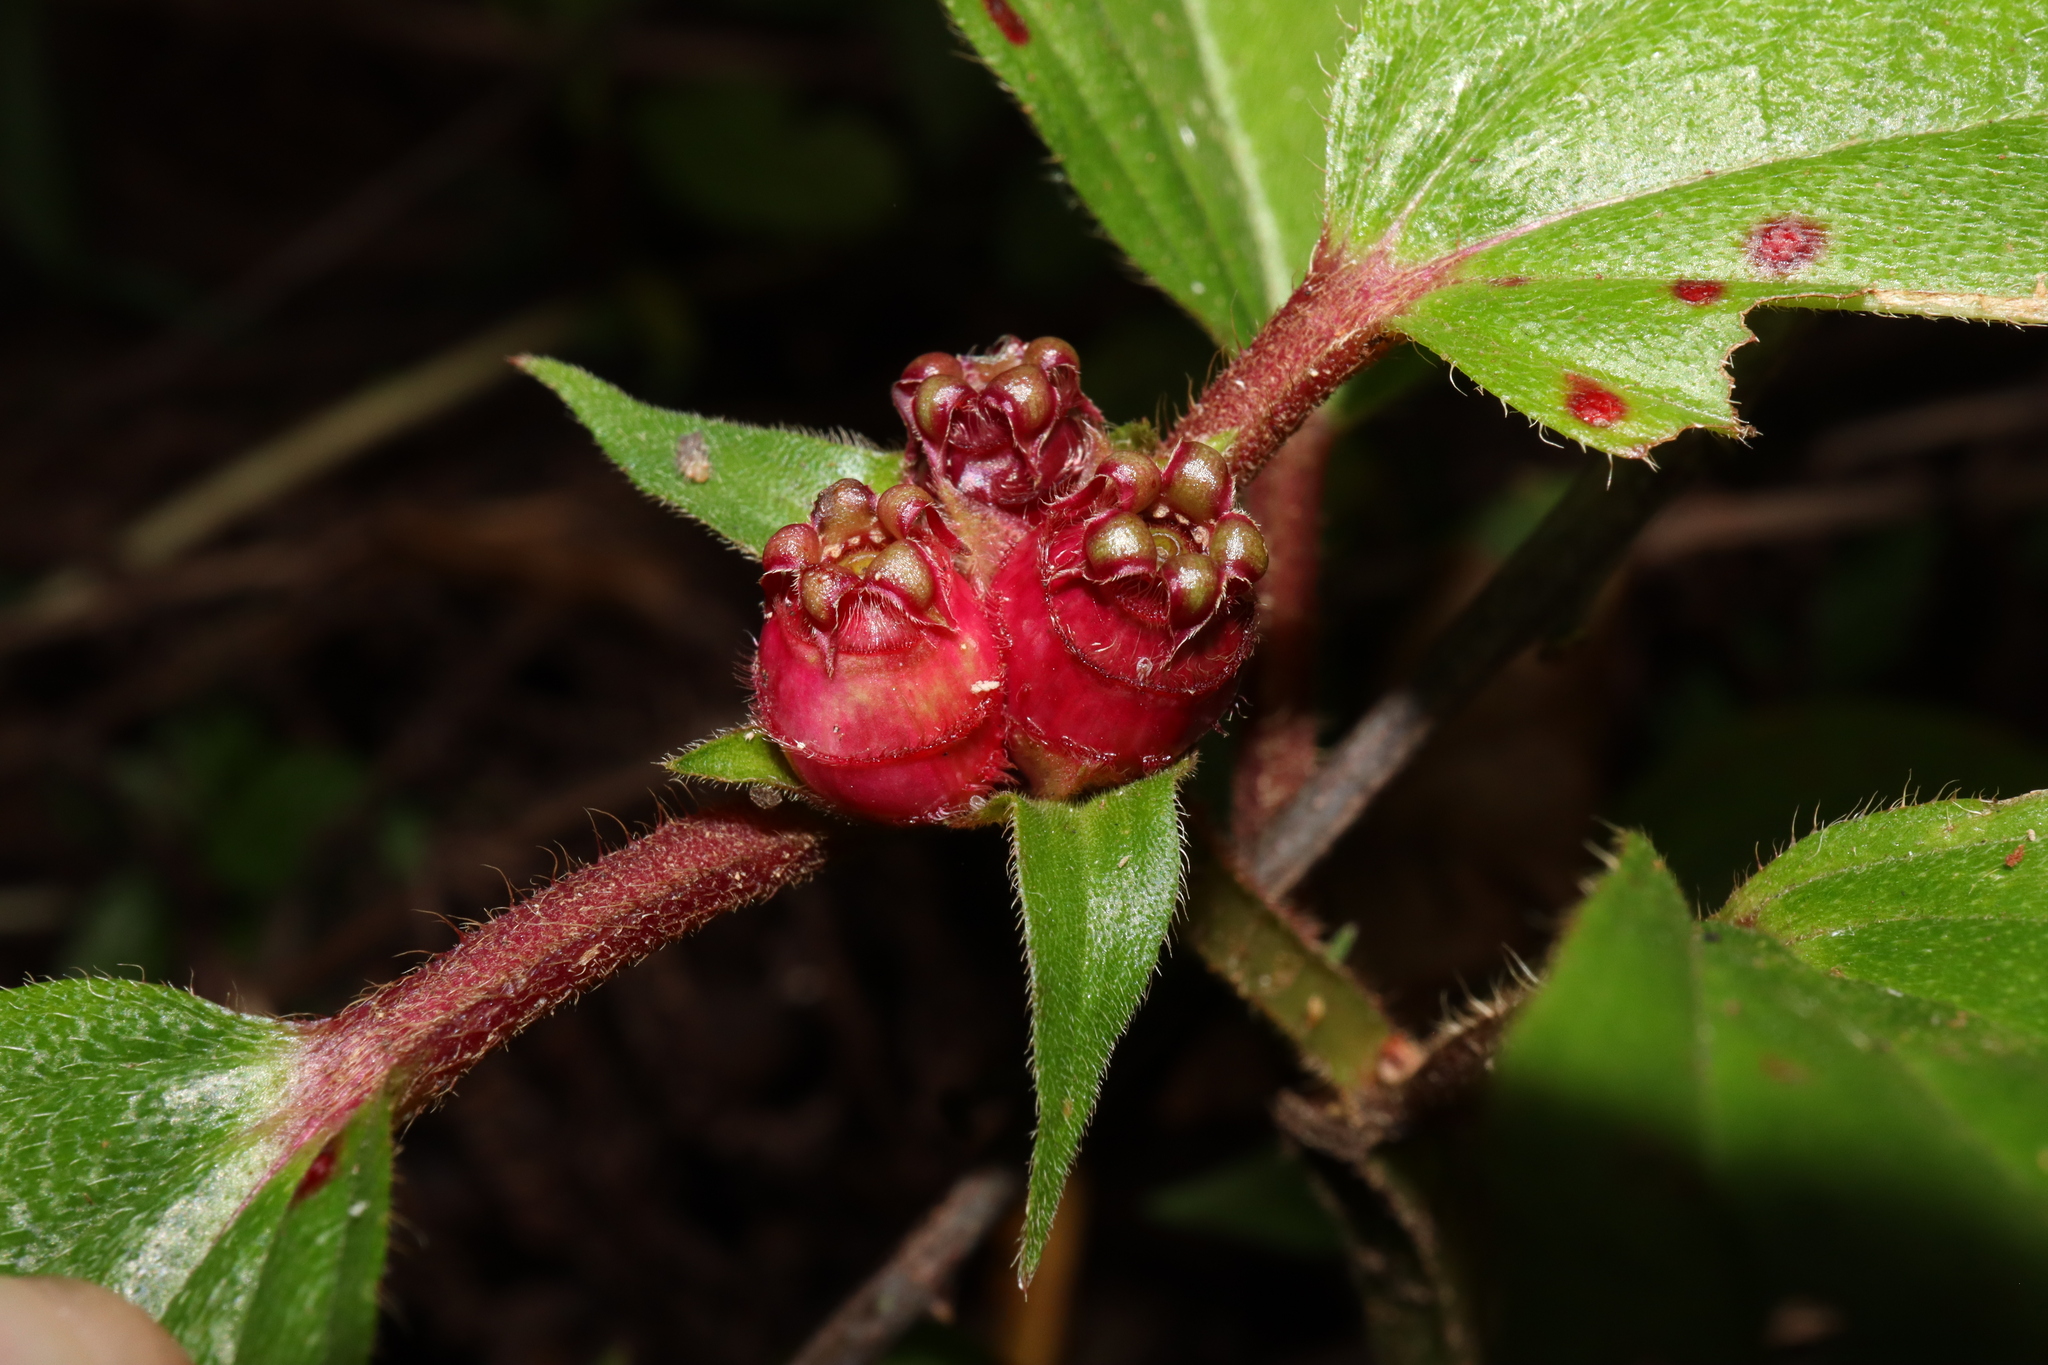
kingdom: Plantae
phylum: Tracheophyta
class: Magnoliopsida
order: Myrtales
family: Melastomataceae
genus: Tristemma
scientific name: Tristemma mauritianum
